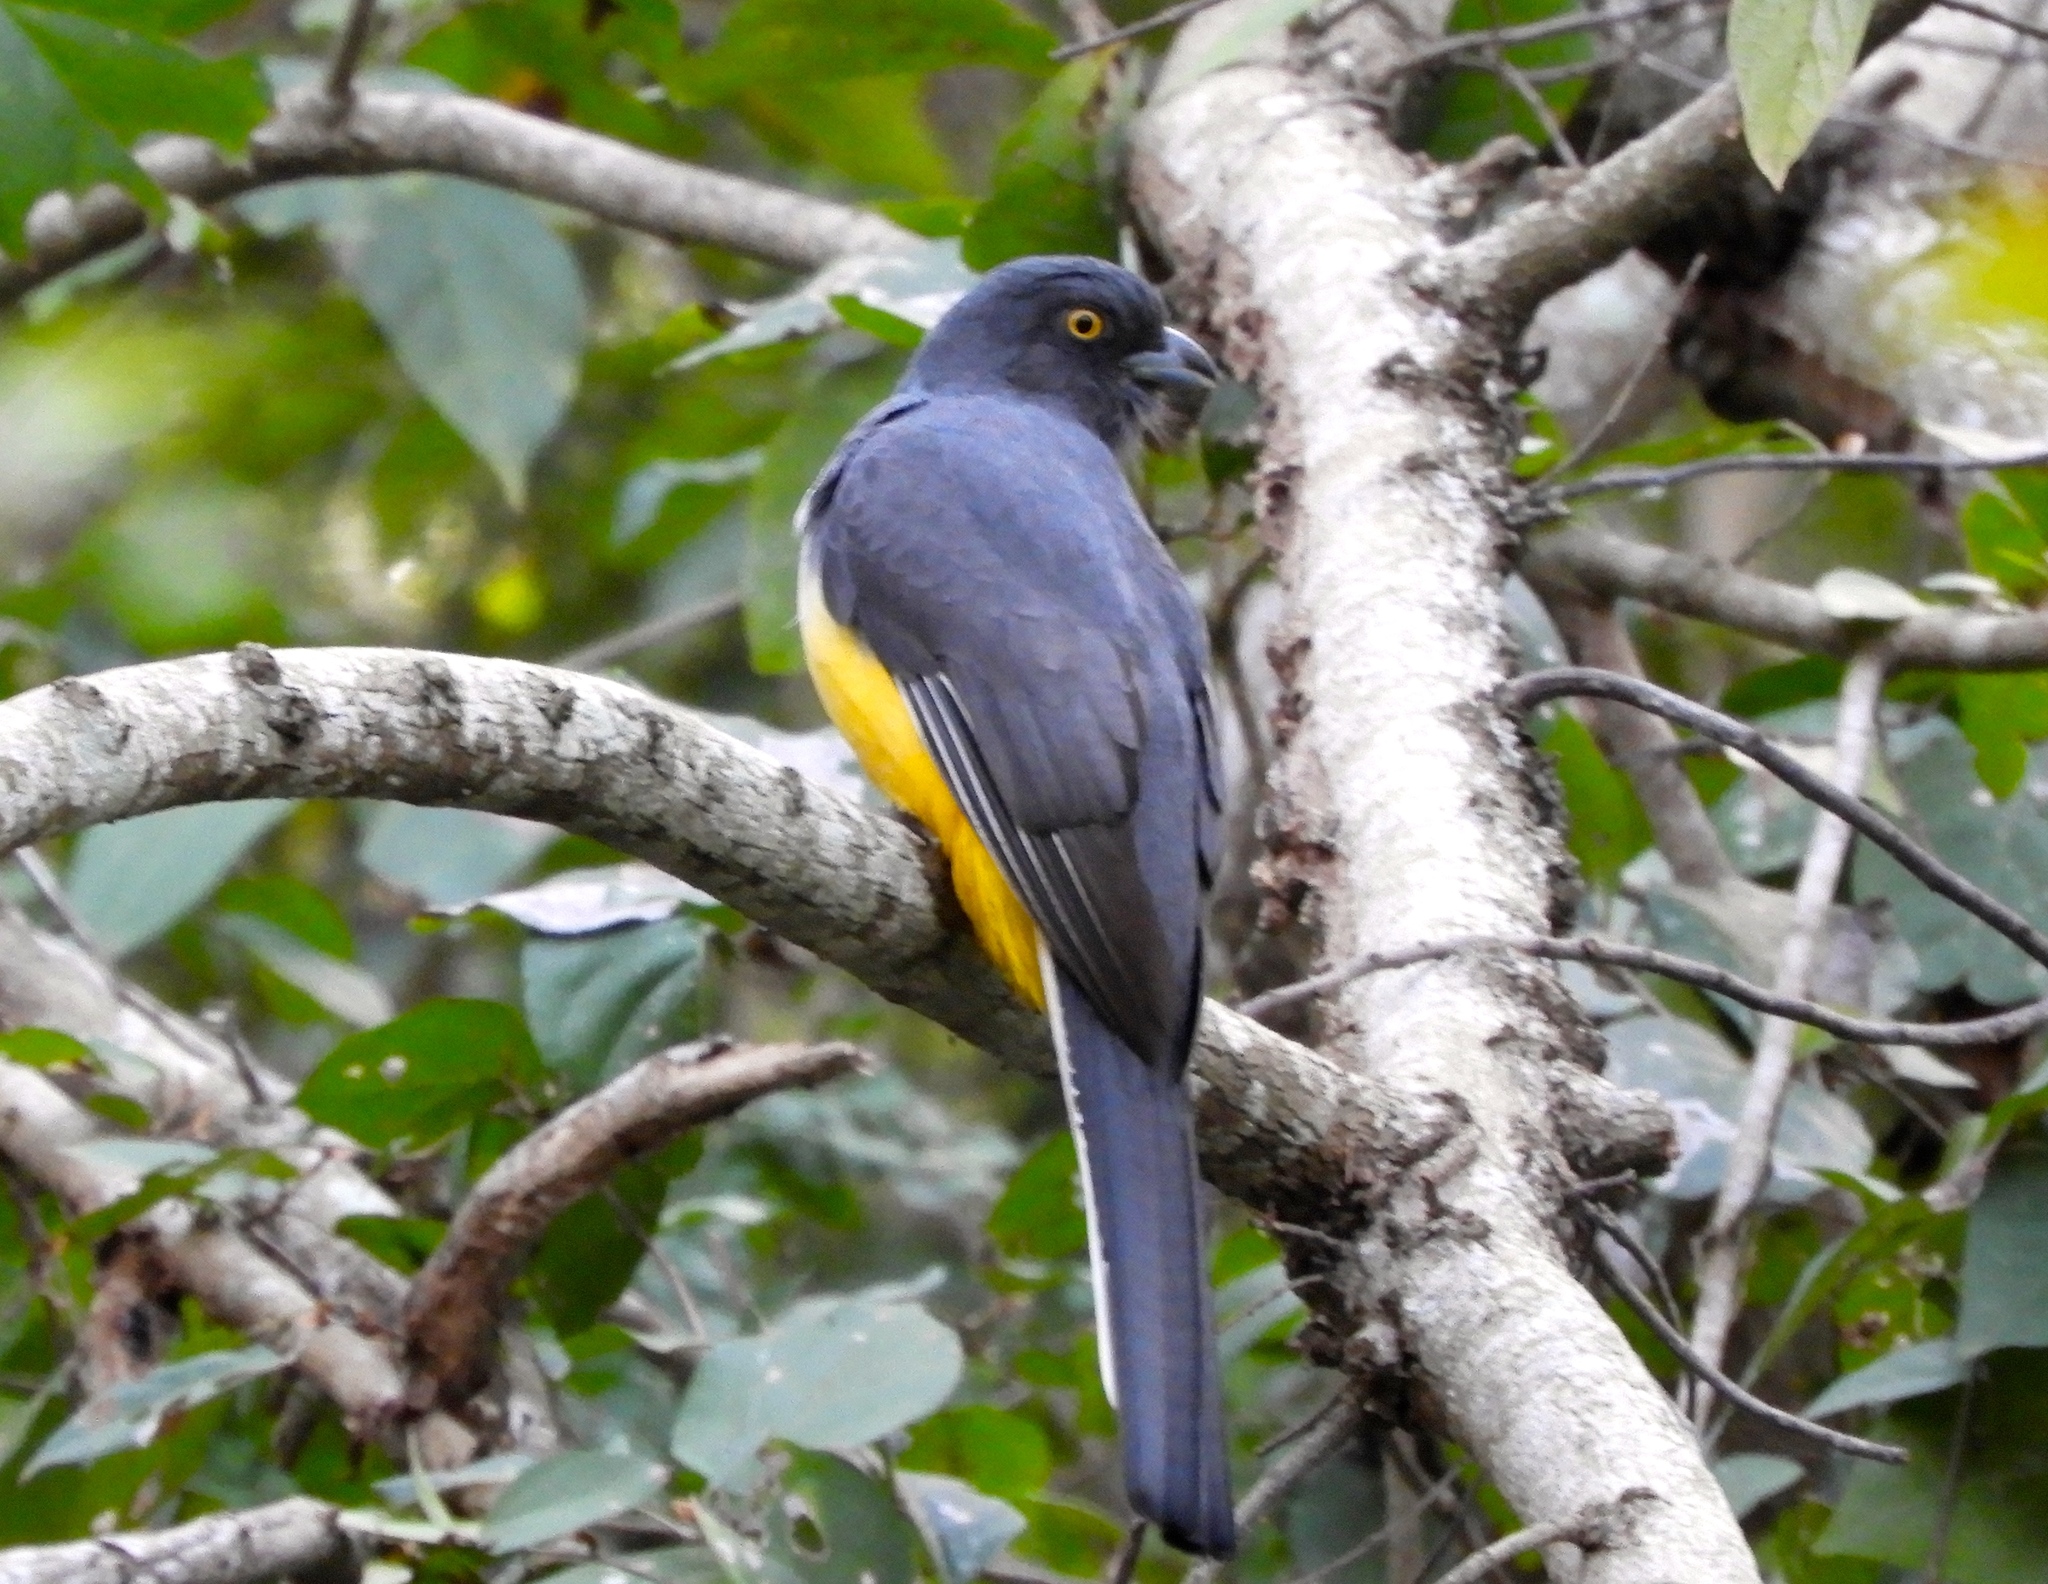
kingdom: Animalia
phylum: Chordata
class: Aves
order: Trogoniformes
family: Trogonidae
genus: Trogon
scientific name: Trogon citreolus
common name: Citreoline trogon
